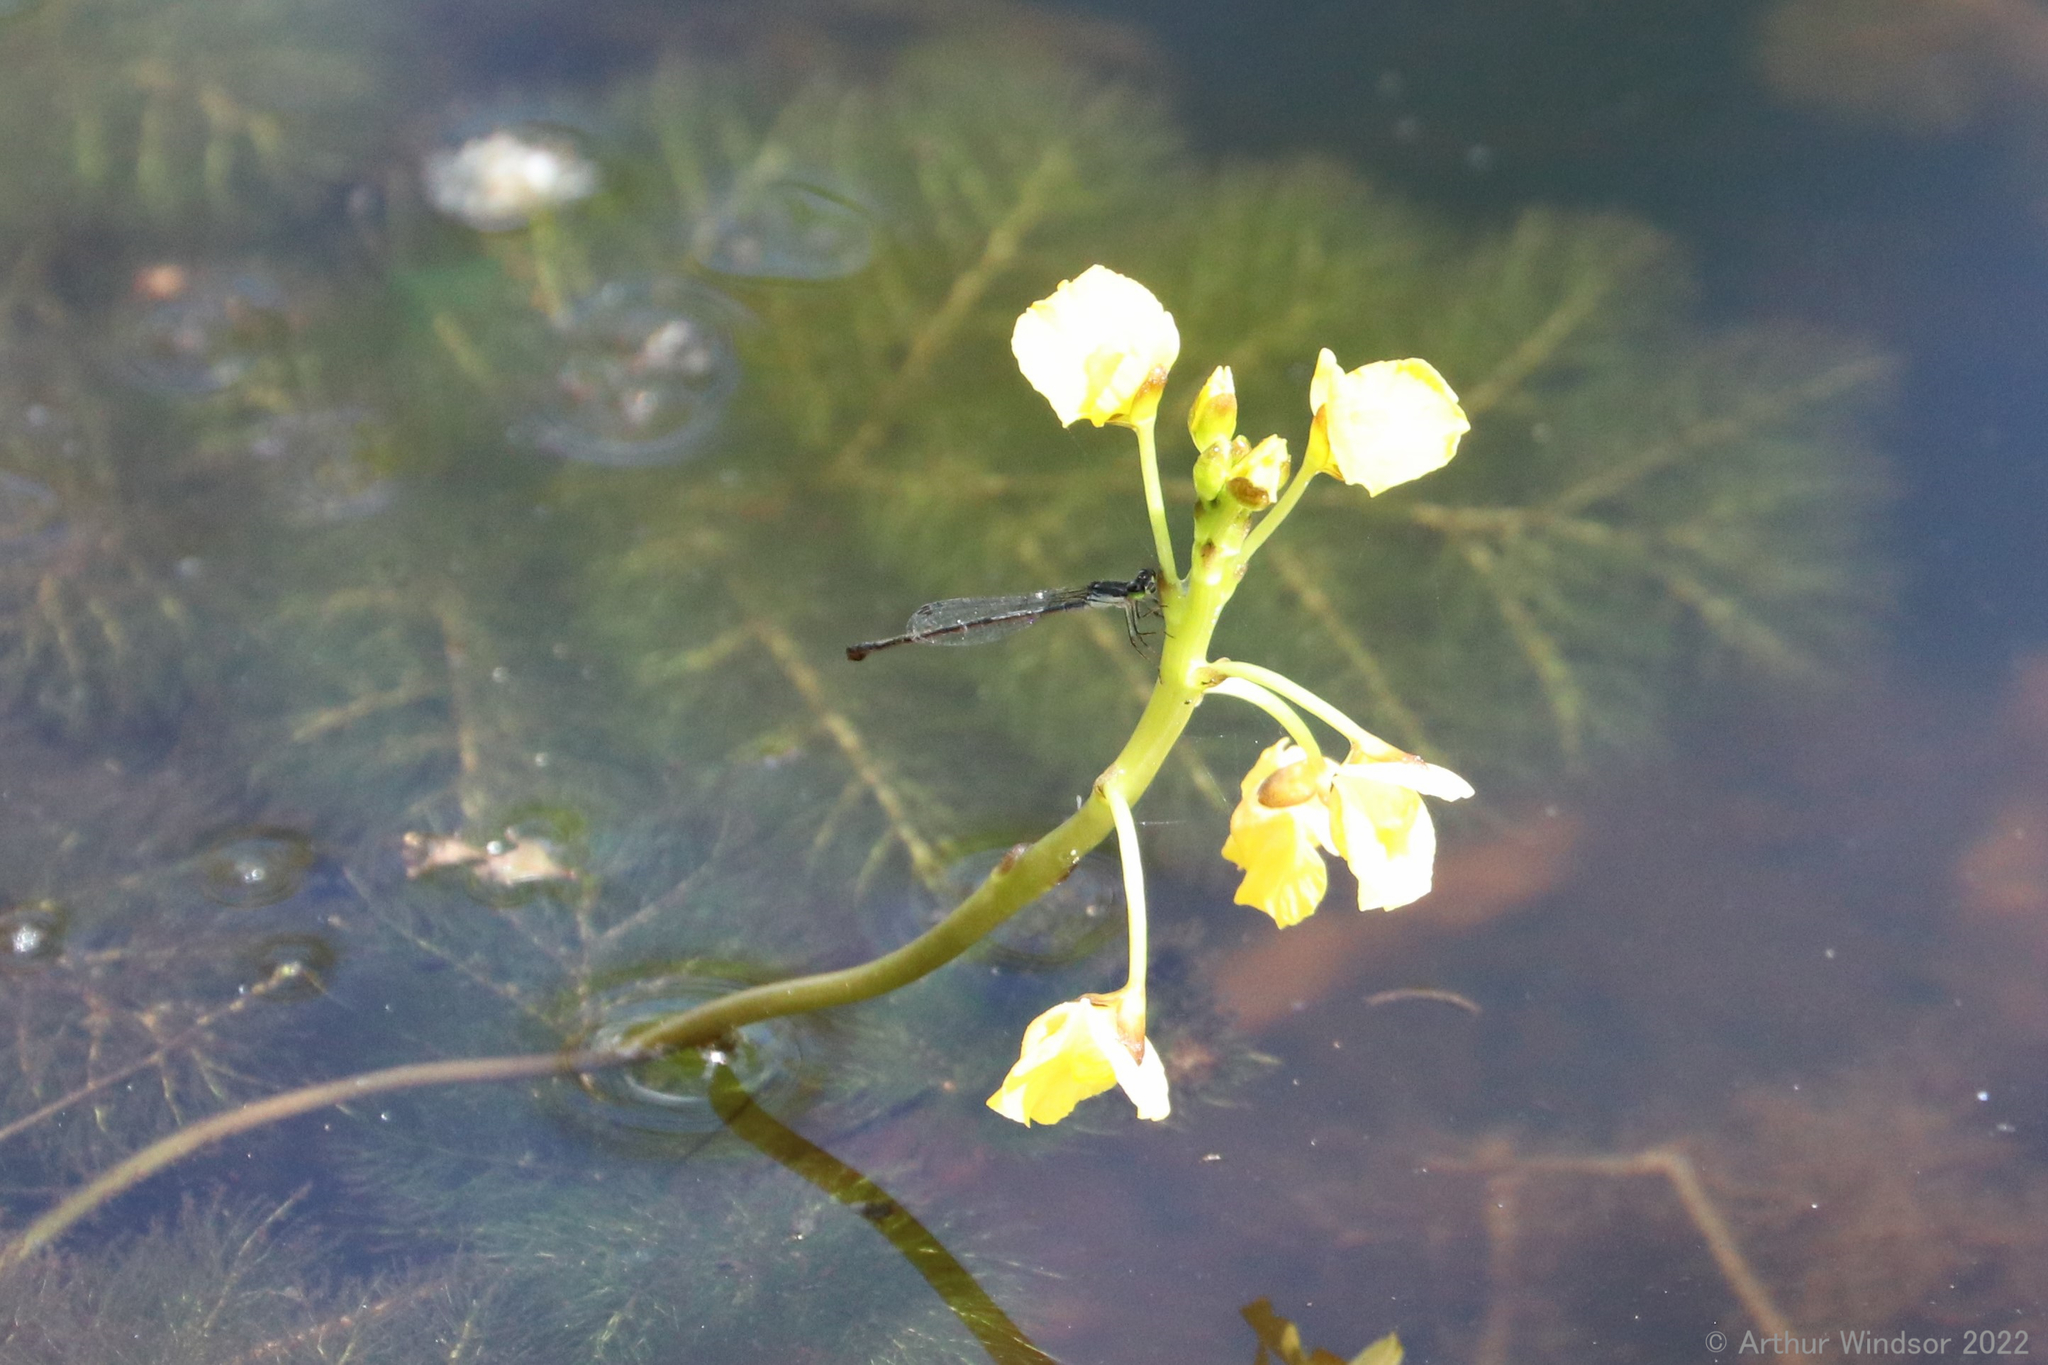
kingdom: Animalia
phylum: Arthropoda
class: Insecta
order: Odonata
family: Coenagrionidae
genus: Ischnura
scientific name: Ischnura posita
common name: Fragile forktail
